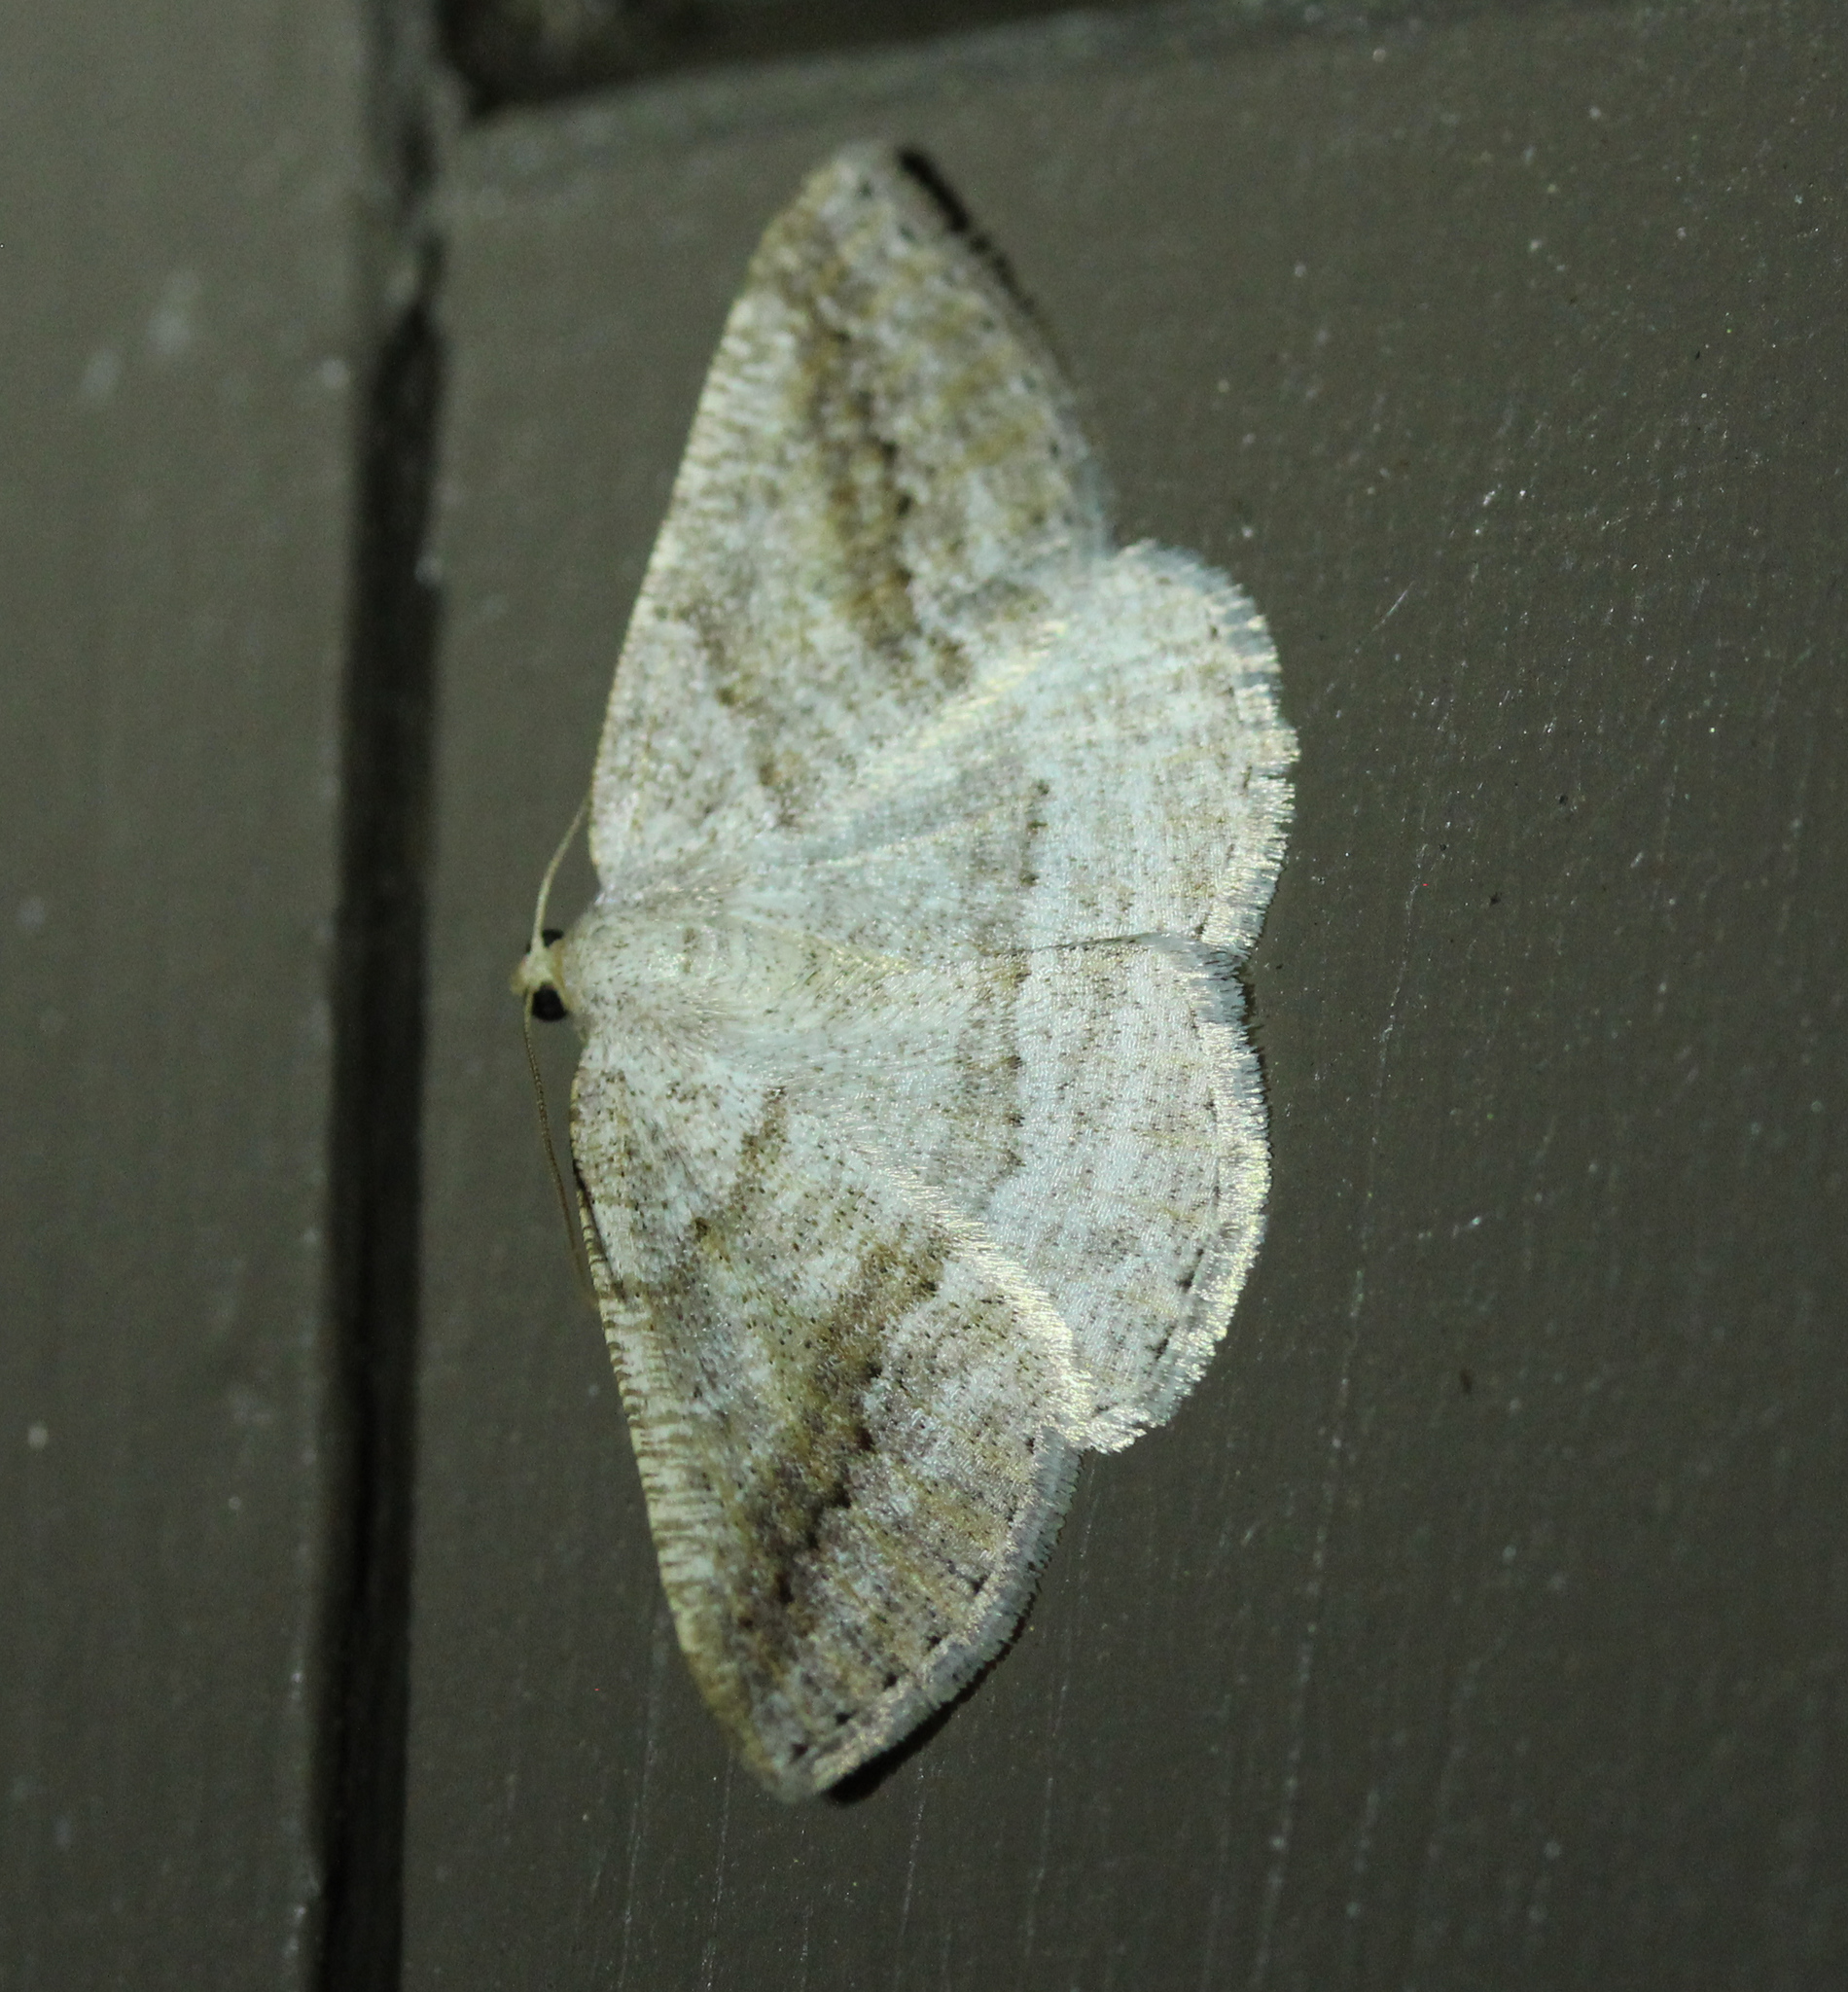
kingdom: Animalia
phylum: Arthropoda
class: Insecta
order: Lepidoptera
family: Geometridae
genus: Tacparia
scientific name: Tacparia detersata
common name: Pale alder moth
